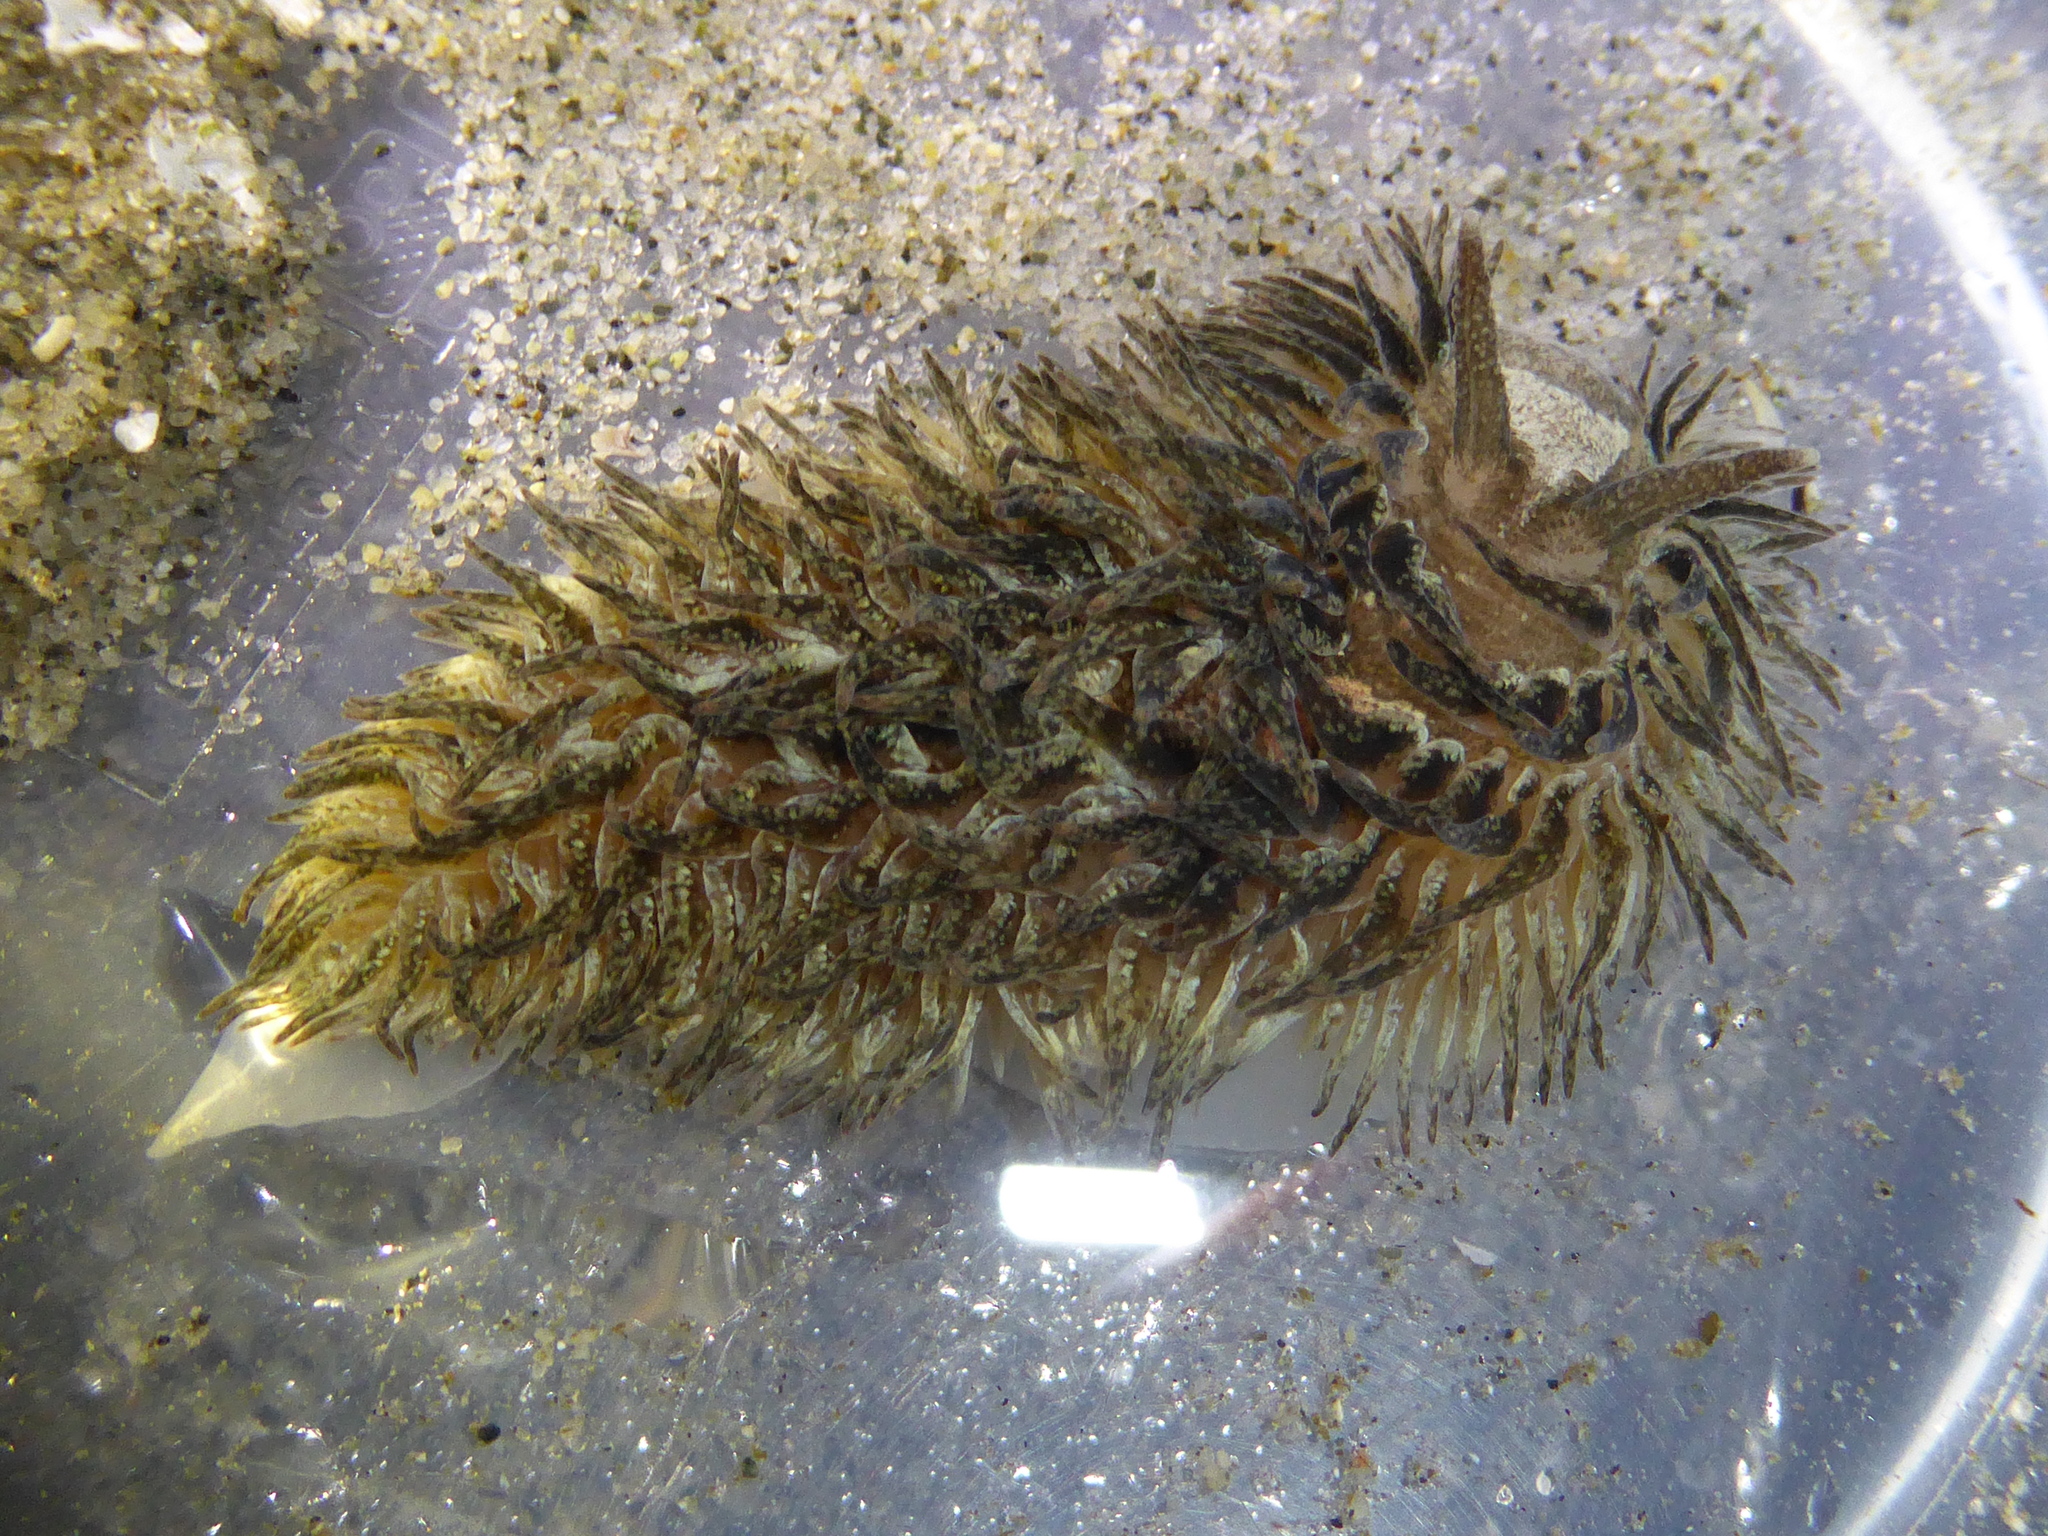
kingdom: Animalia
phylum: Mollusca
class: Gastropoda
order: Nudibranchia
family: Aeolidiidae
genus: Aeolidia
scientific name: Aeolidia loui
